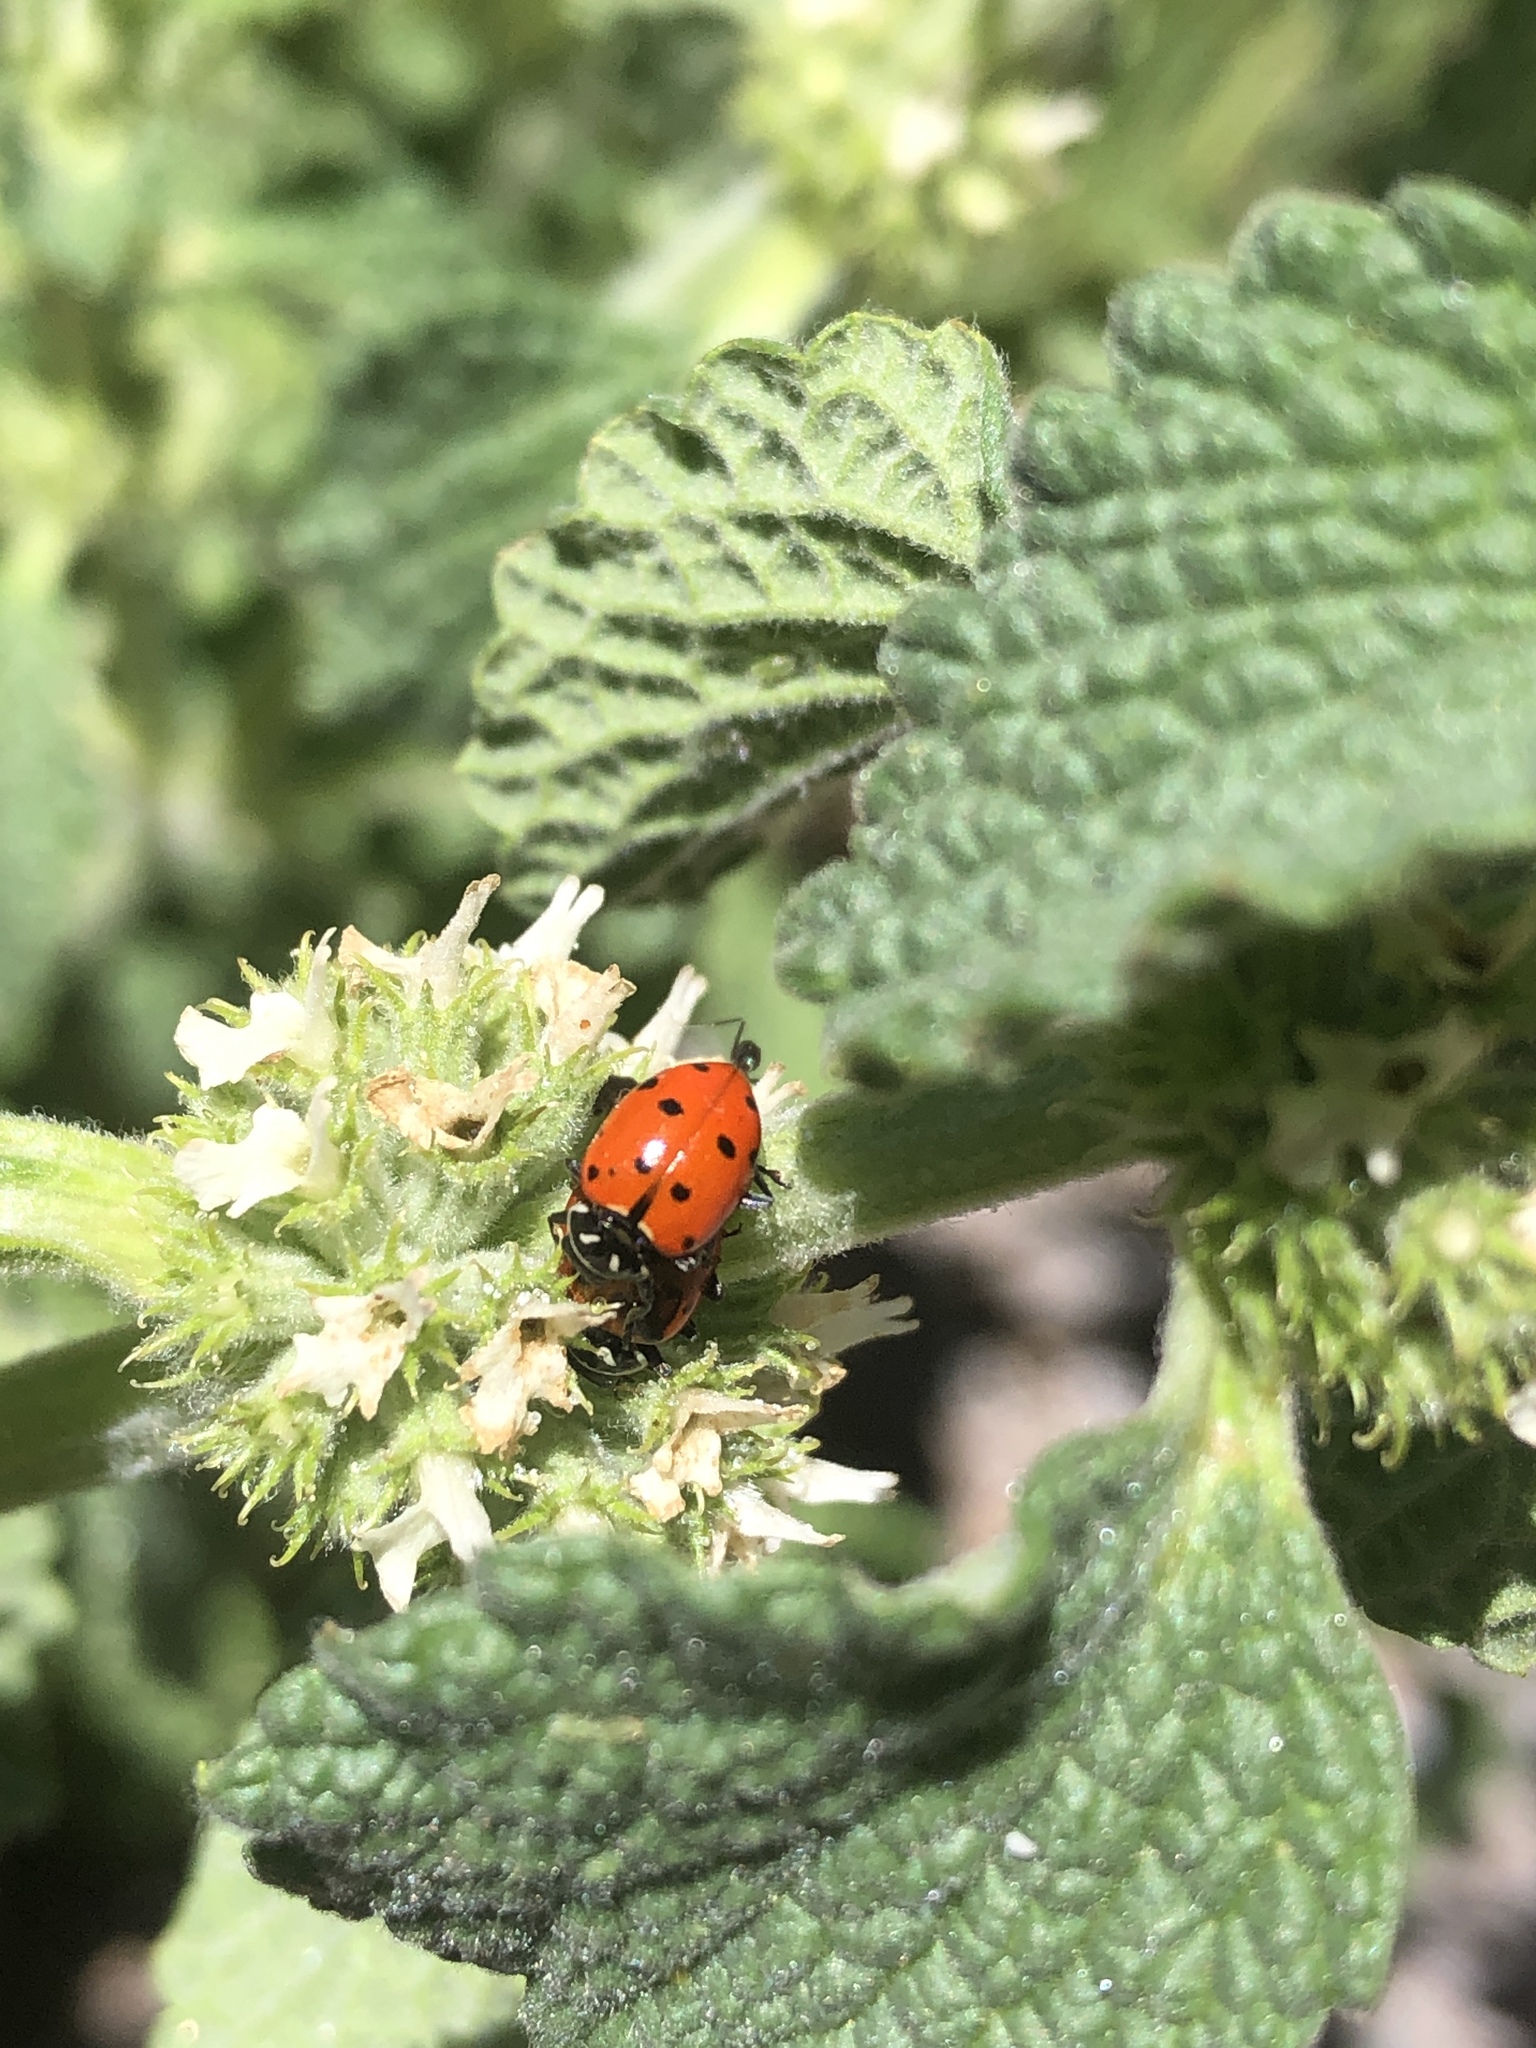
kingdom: Animalia
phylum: Arthropoda
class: Insecta
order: Coleoptera
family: Coccinellidae
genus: Hippodamia
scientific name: Hippodamia convergens
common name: Convergent lady beetle
